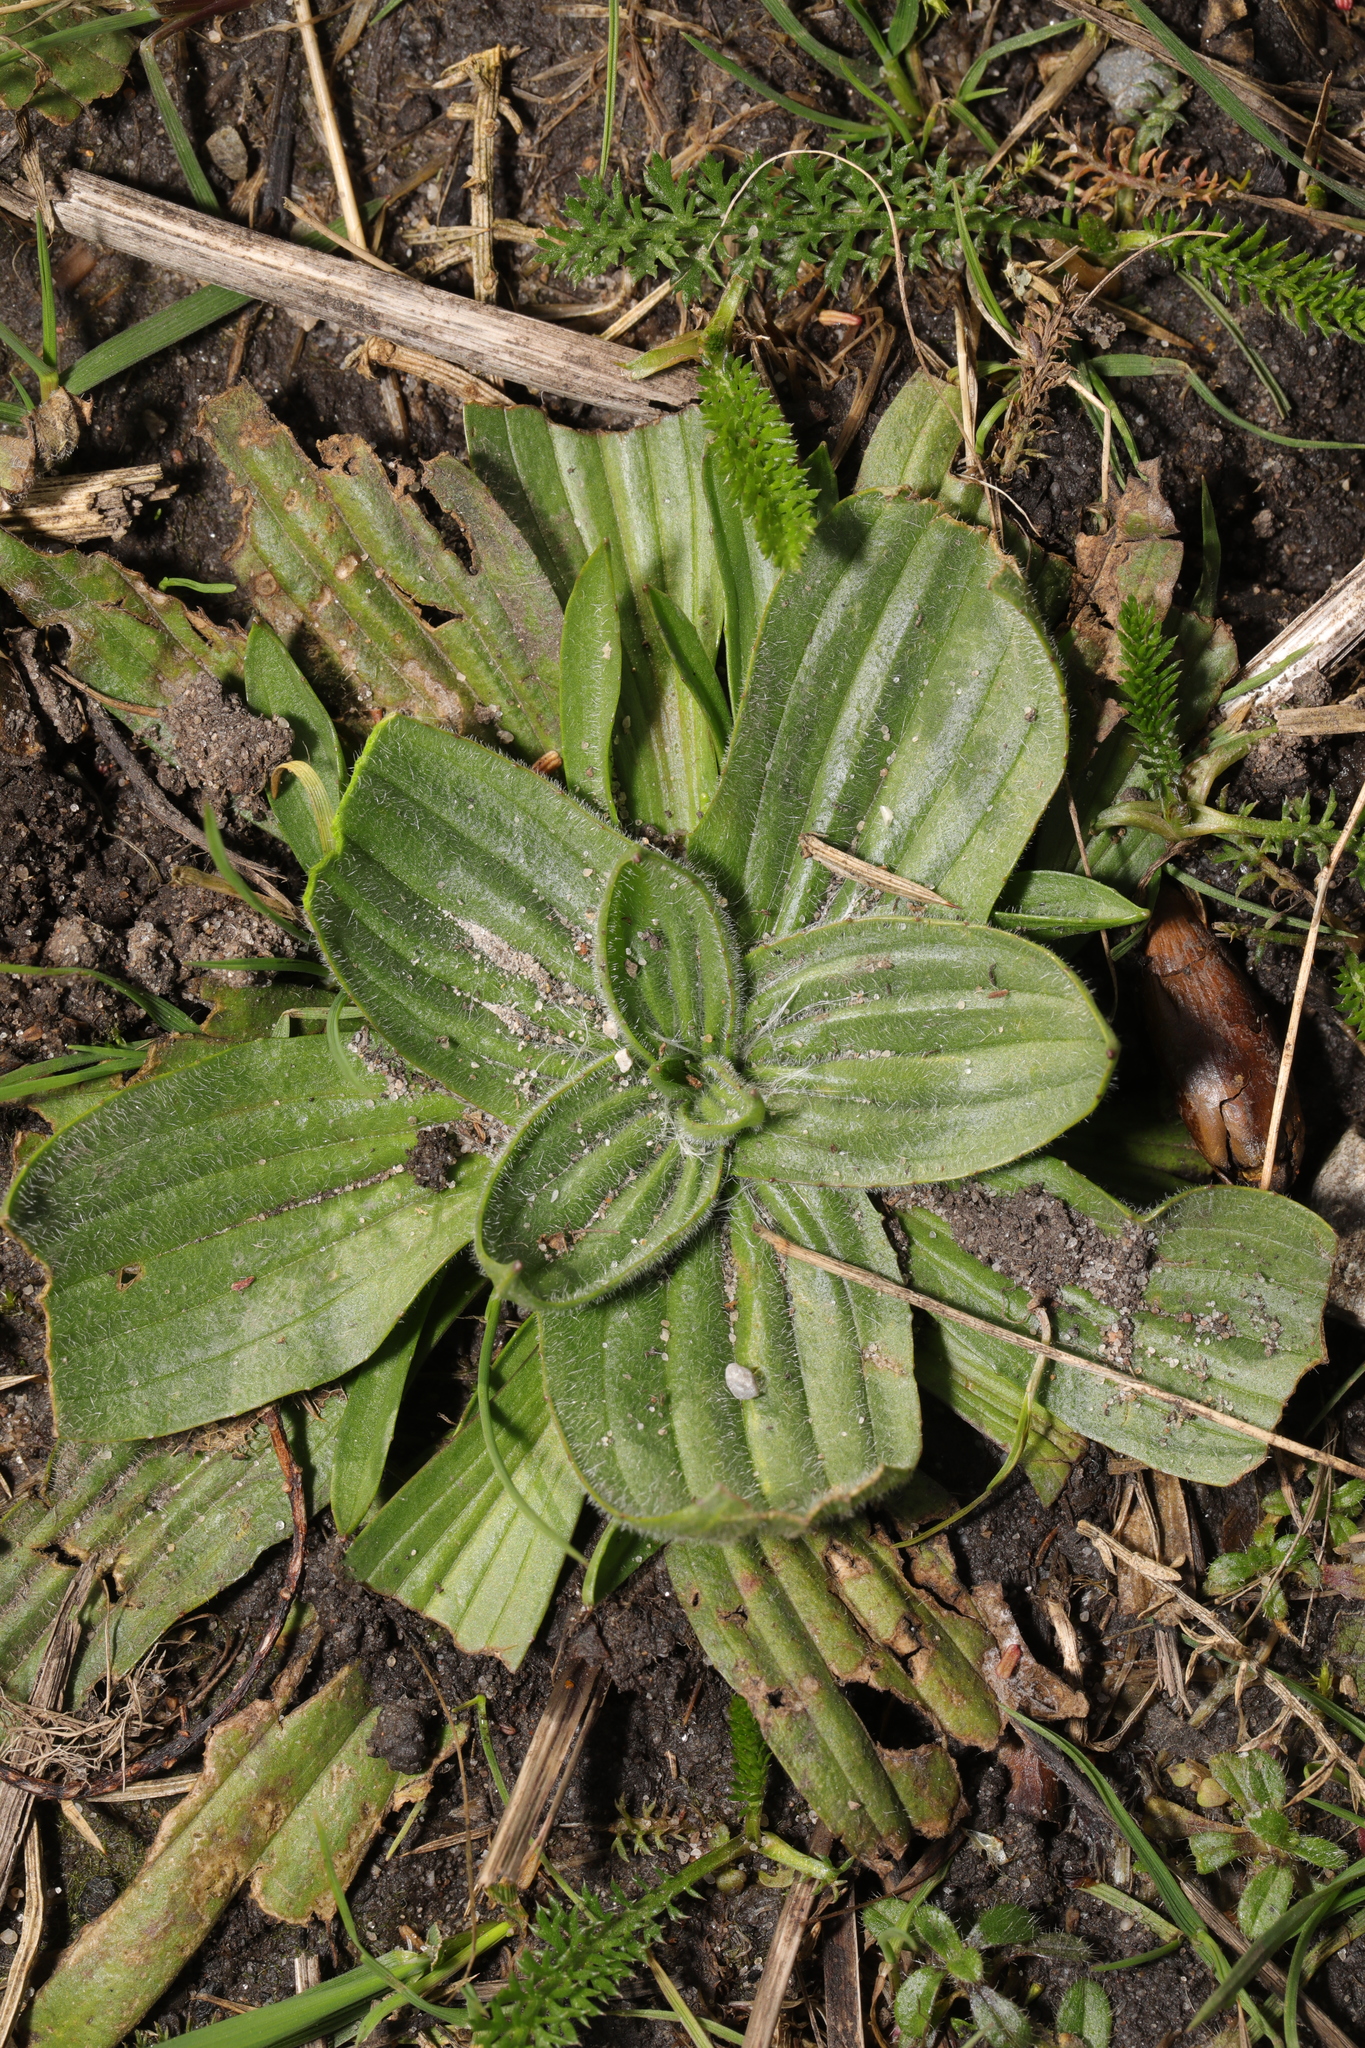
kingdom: Plantae
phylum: Tracheophyta
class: Magnoliopsida
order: Lamiales
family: Plantaginaceae
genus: Plantago
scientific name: Plantago lanceolata
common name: Ribwort plantain
